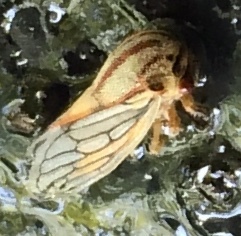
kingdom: Animalia
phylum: Arthropoda
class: Insecta
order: Hemiptera
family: Membracidae
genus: Platycotis
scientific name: Platycotis vittatus
